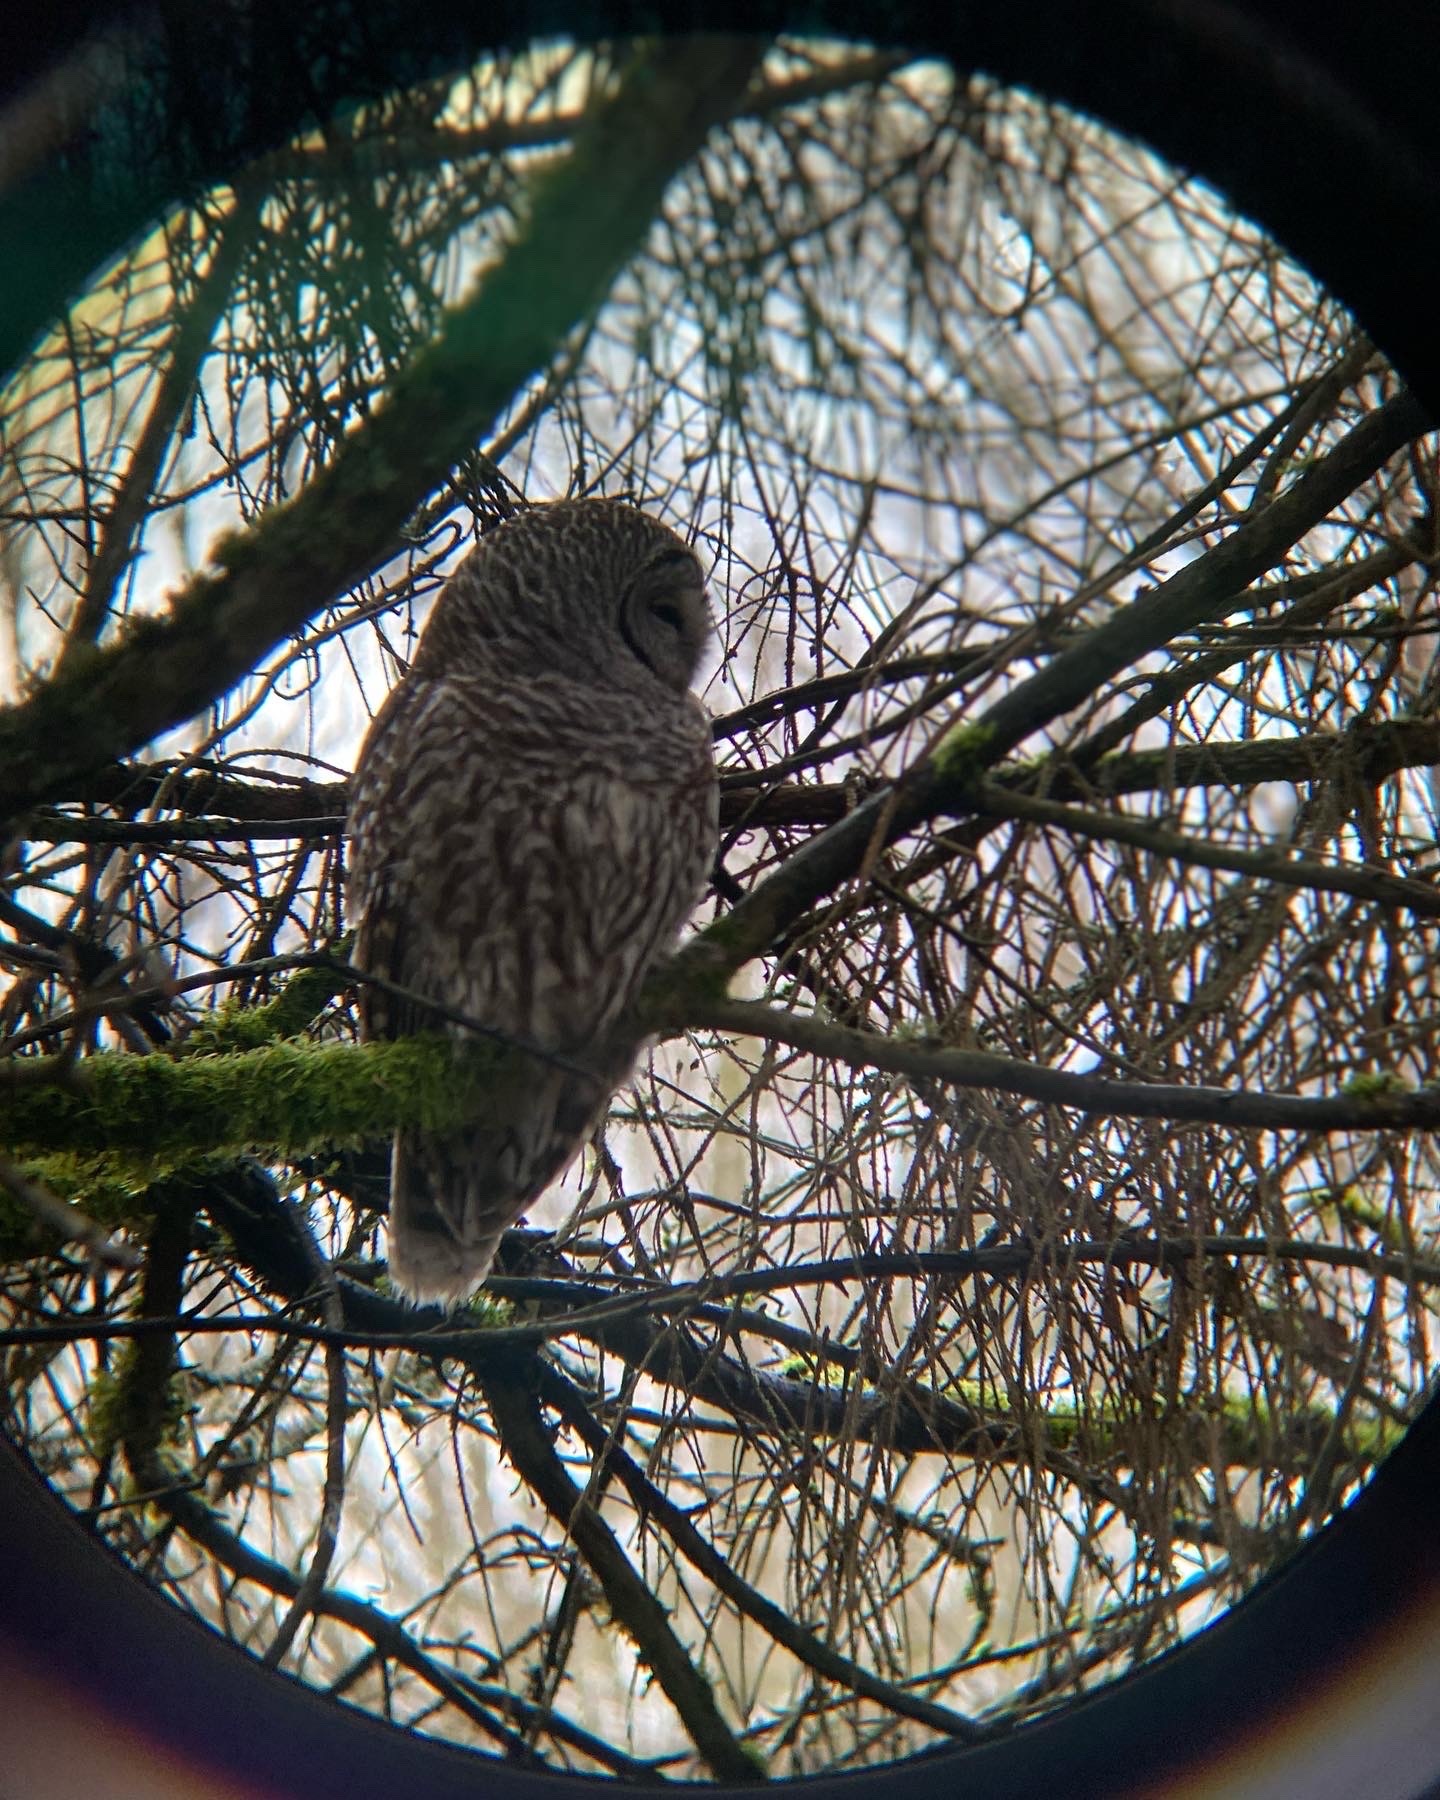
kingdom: Animalia
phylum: Chordata
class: Aves
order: Strigiformes
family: Strigidae
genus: Strix
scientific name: Strix varia
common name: Barred owl
